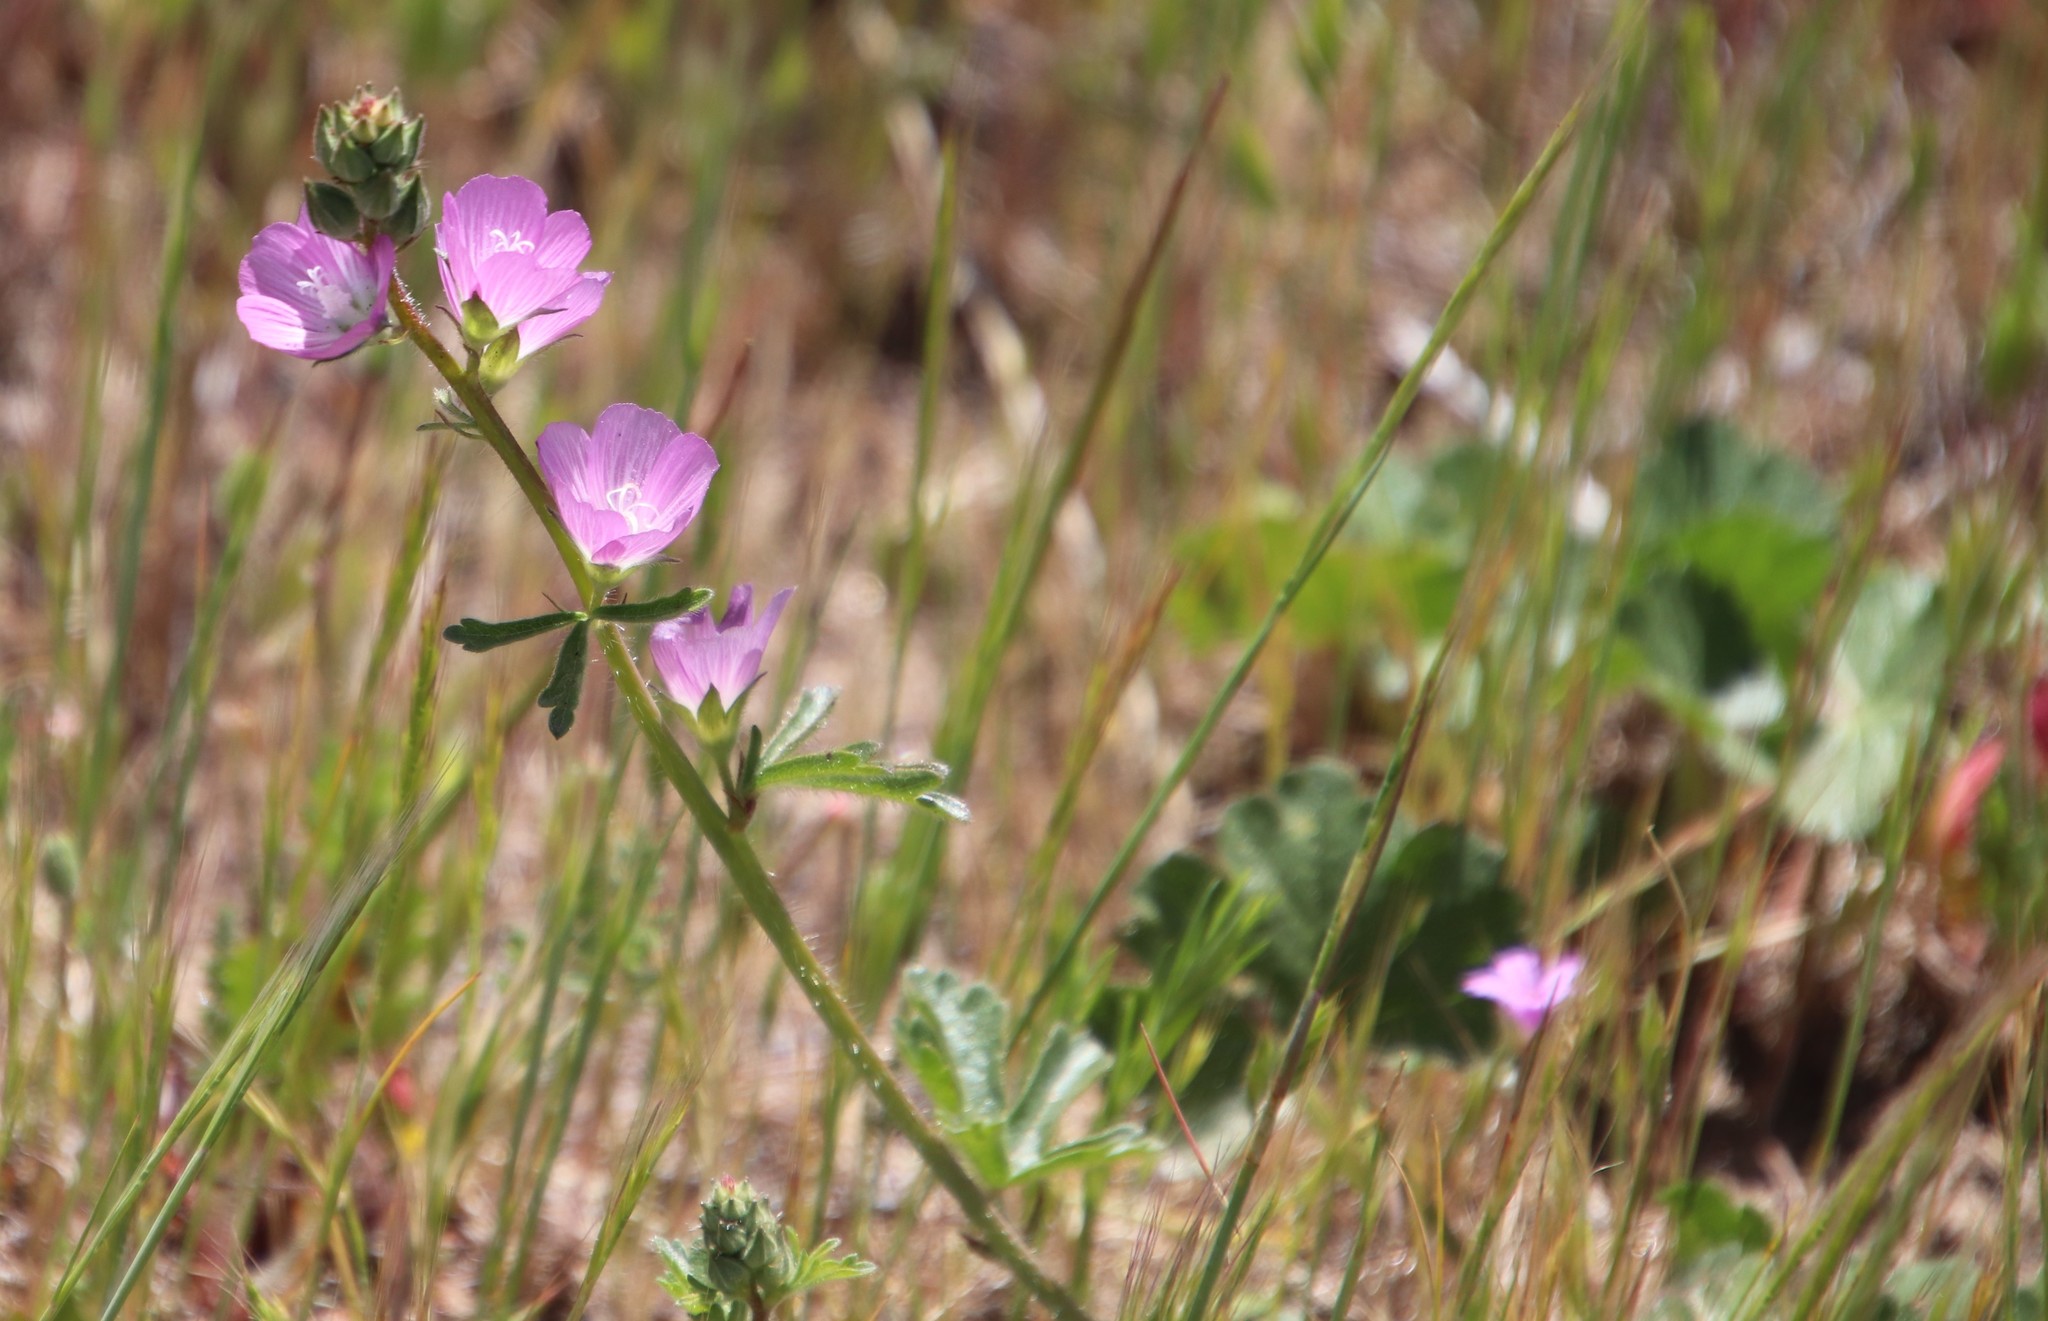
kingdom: Plantae
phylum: Tracheophyta
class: Magnoliopsida
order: Malvales
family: Malvaceae
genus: Sidalcea
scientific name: Sidalcea sparsifolia
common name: Southern checkerbloom
